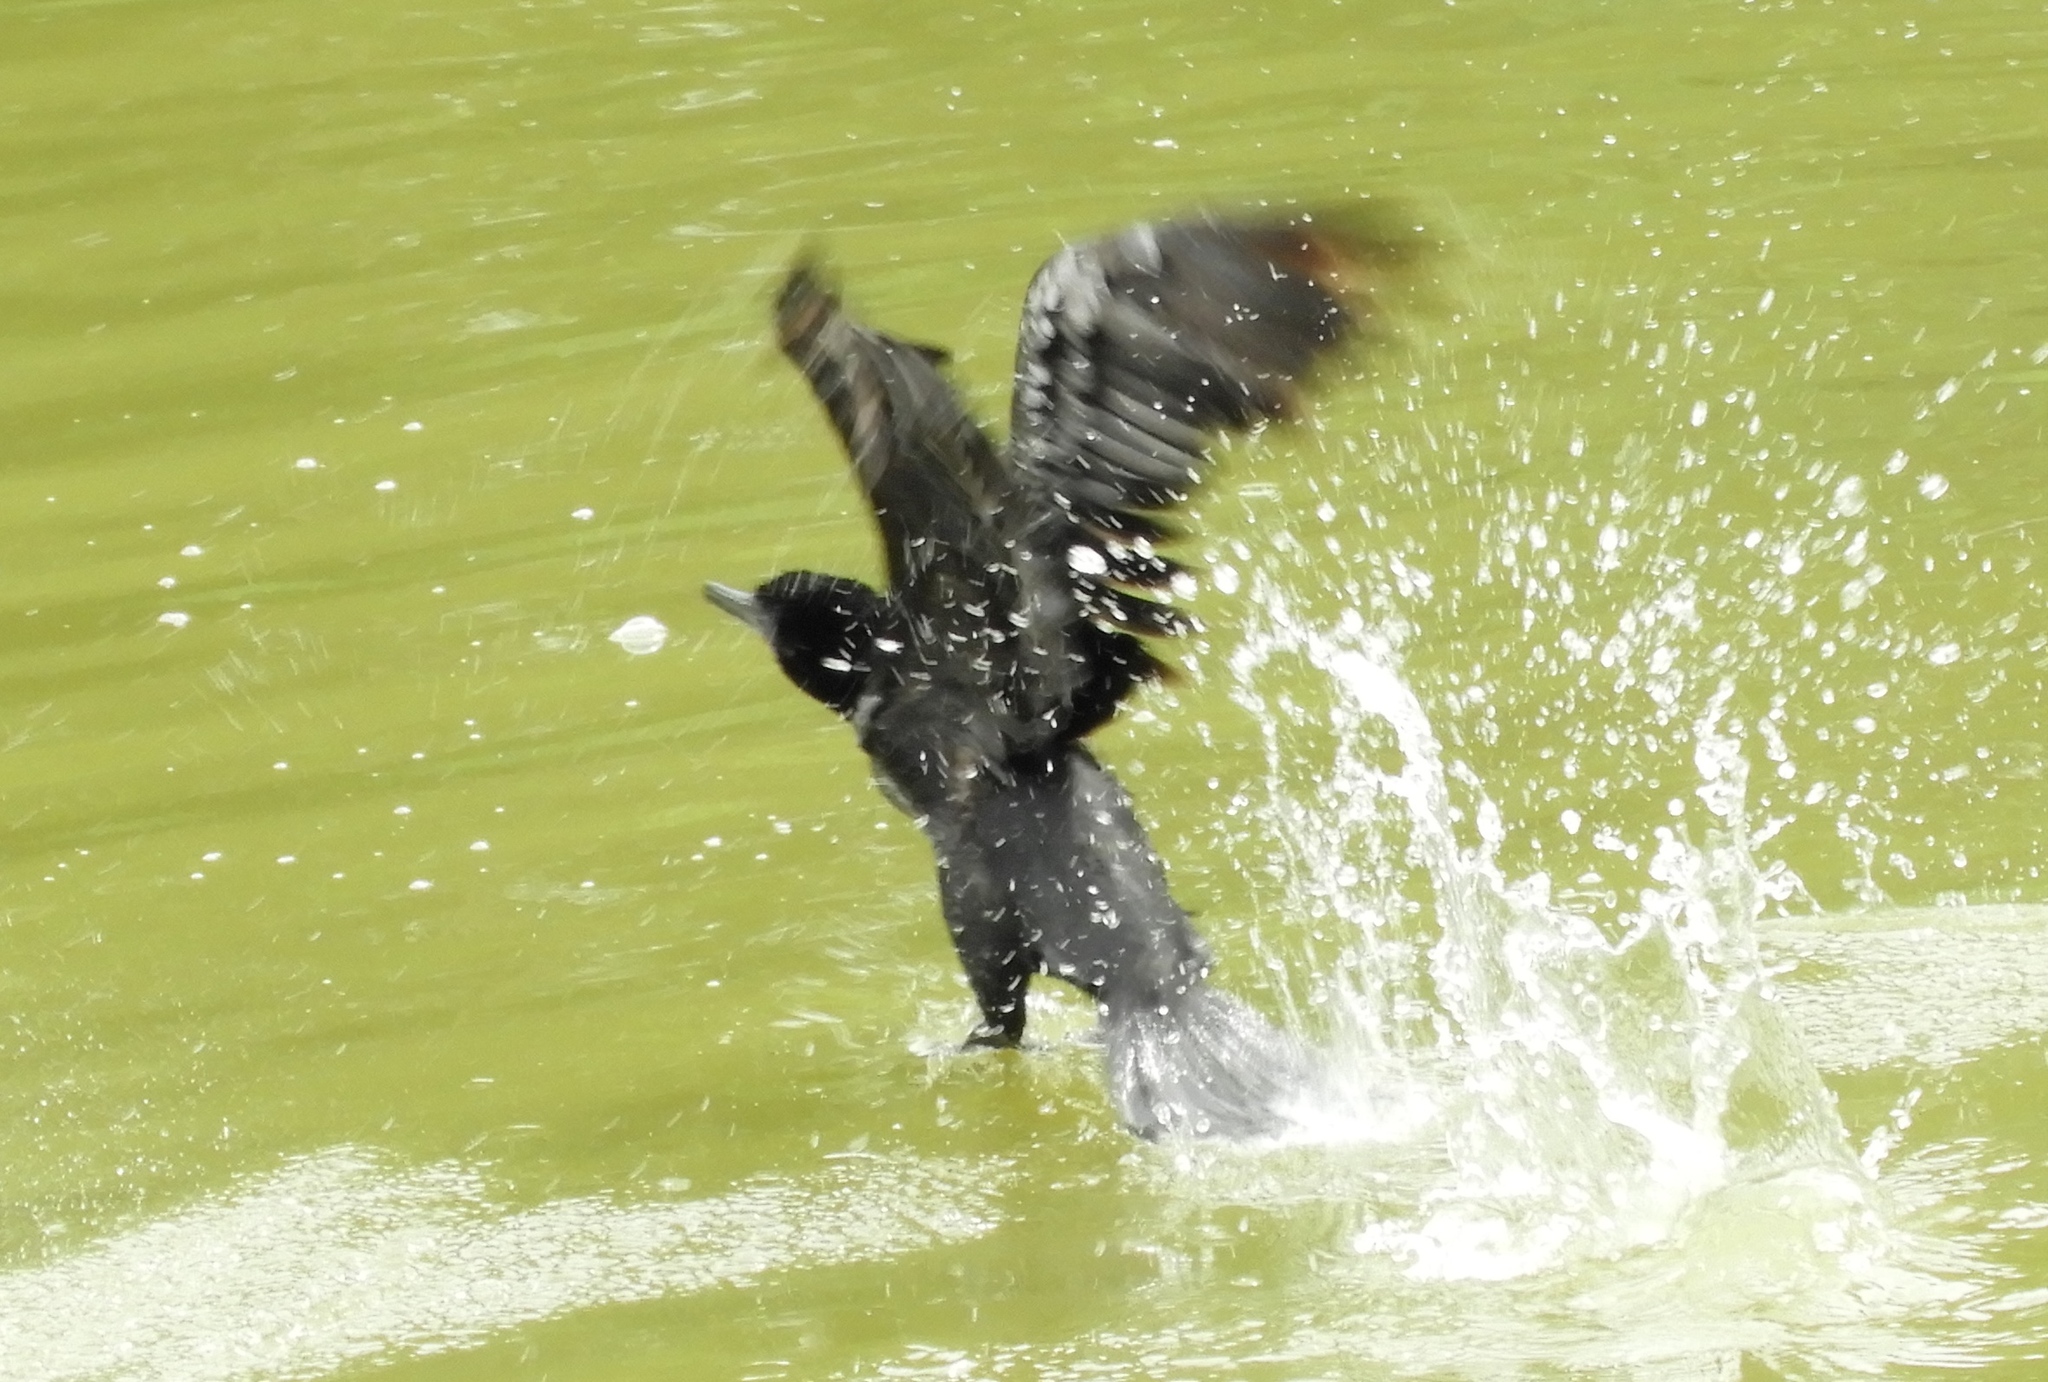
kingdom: Animalia
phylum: Chordata
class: Aves
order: Suliformes
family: Phalacrocoracidae
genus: Phalacrocorax
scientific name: Phalacrocorax brasilianus
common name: Neotropic cormorant
